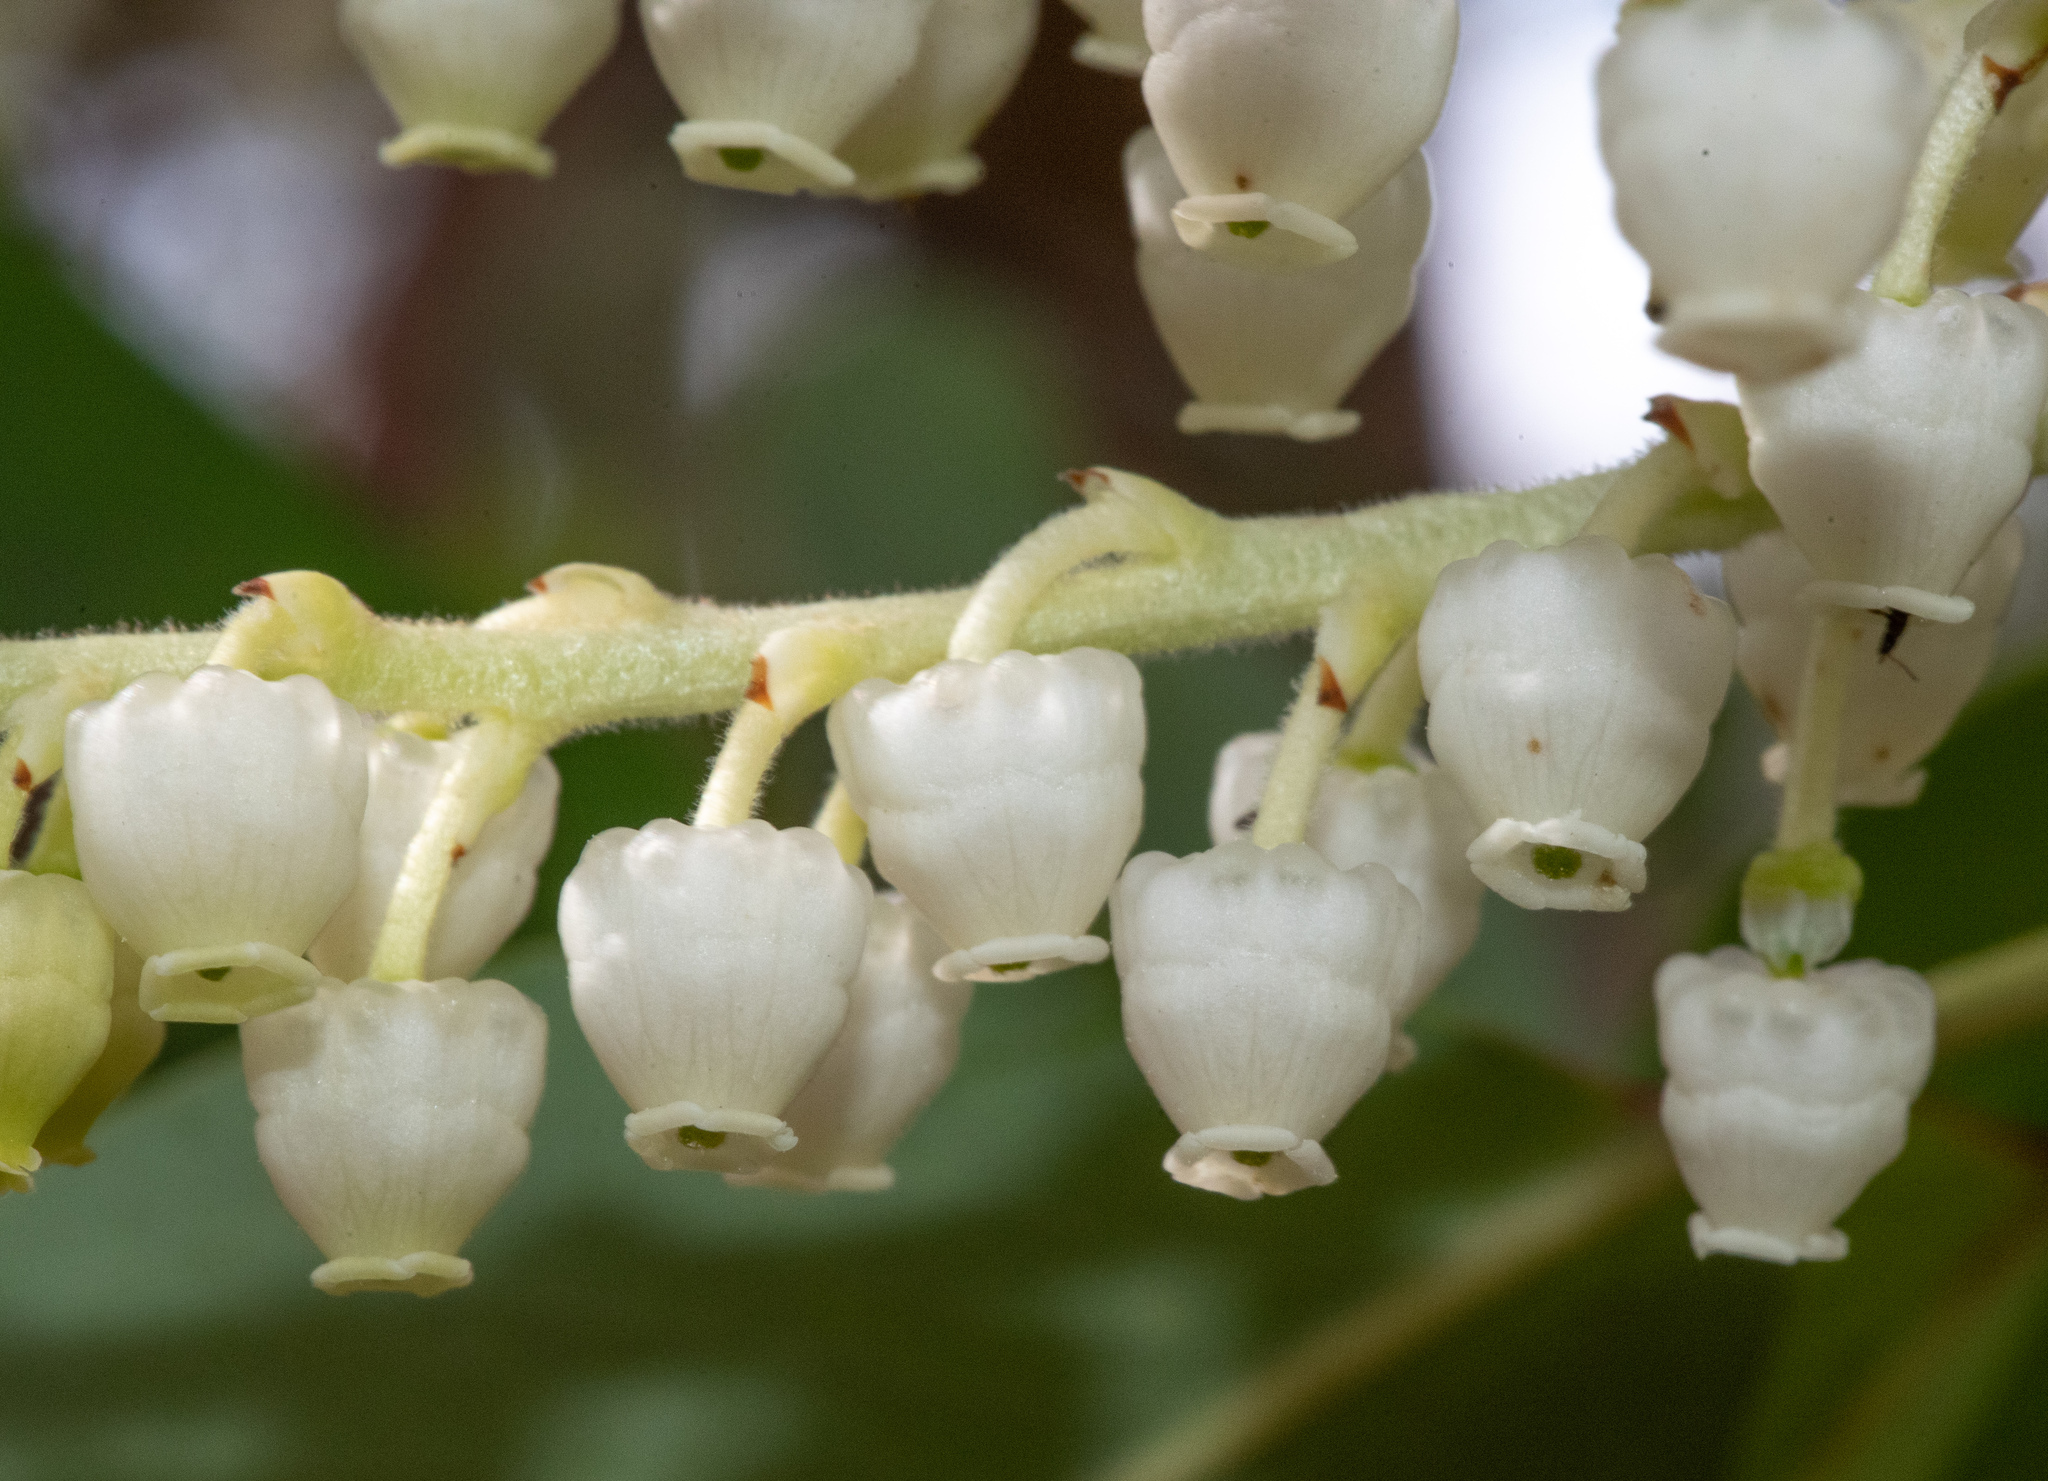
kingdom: Plantae
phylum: Tracheophyta
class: Magnoliopsida
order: Ericales
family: Ericaceae
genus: Arbutus
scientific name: Arbutus menziesii
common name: Pacific madrone
